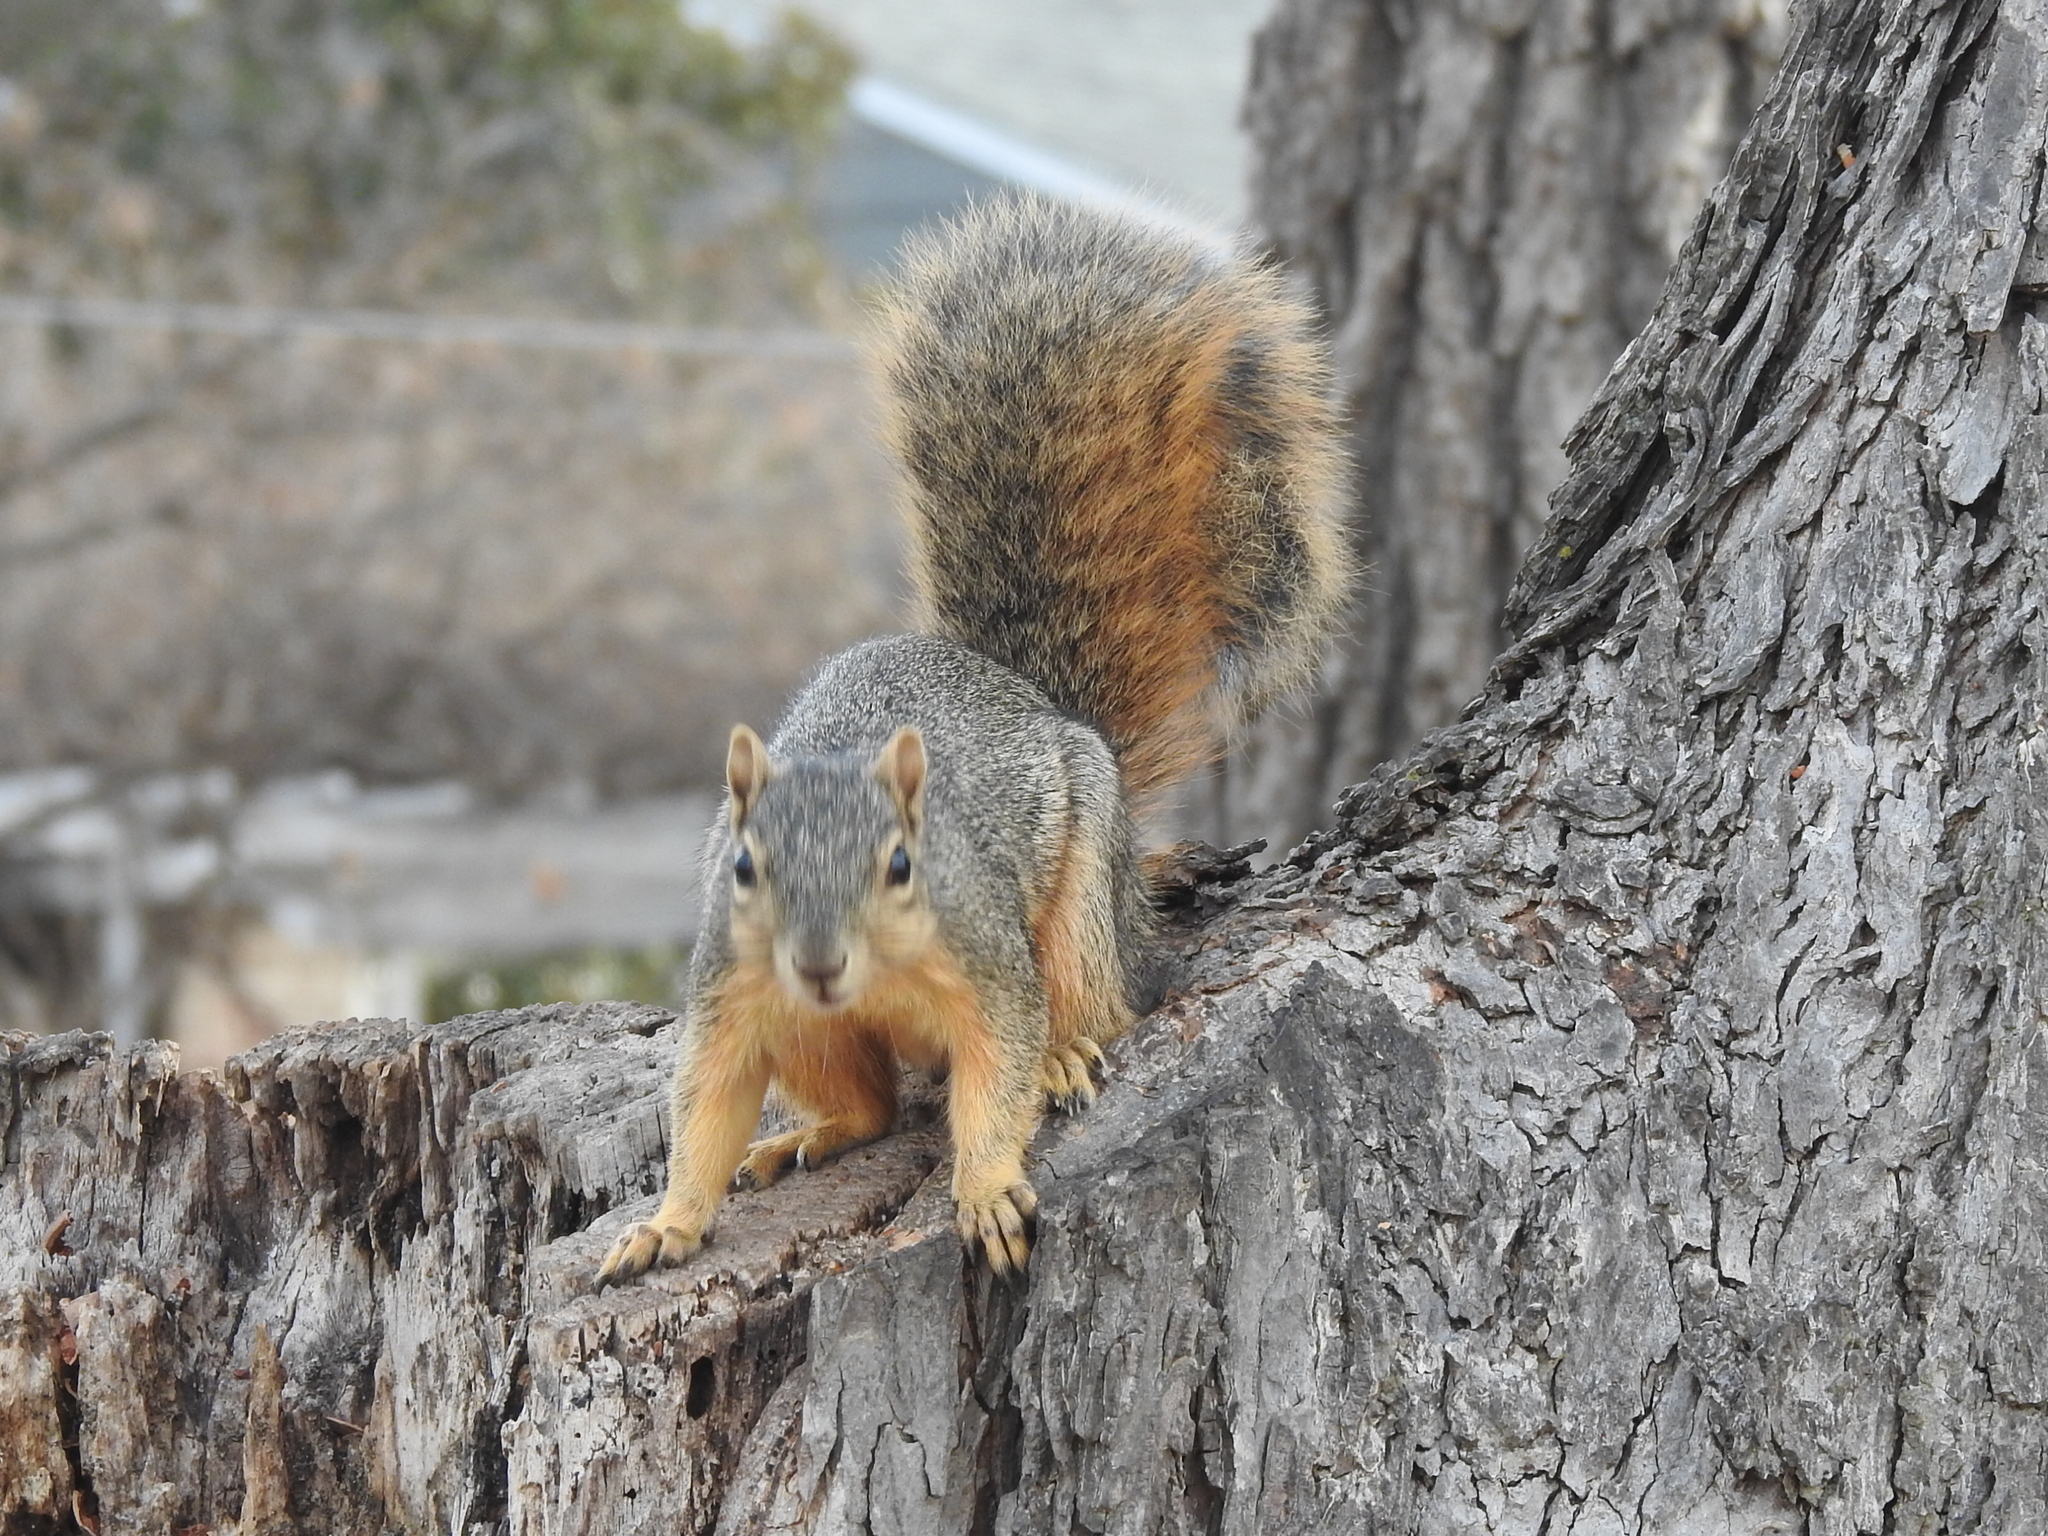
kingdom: Animalia
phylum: Chordata
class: Mammalia
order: Rodentia
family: Sciuridae
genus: Sciurus
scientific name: Sciurus niger
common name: Fox squirrel
